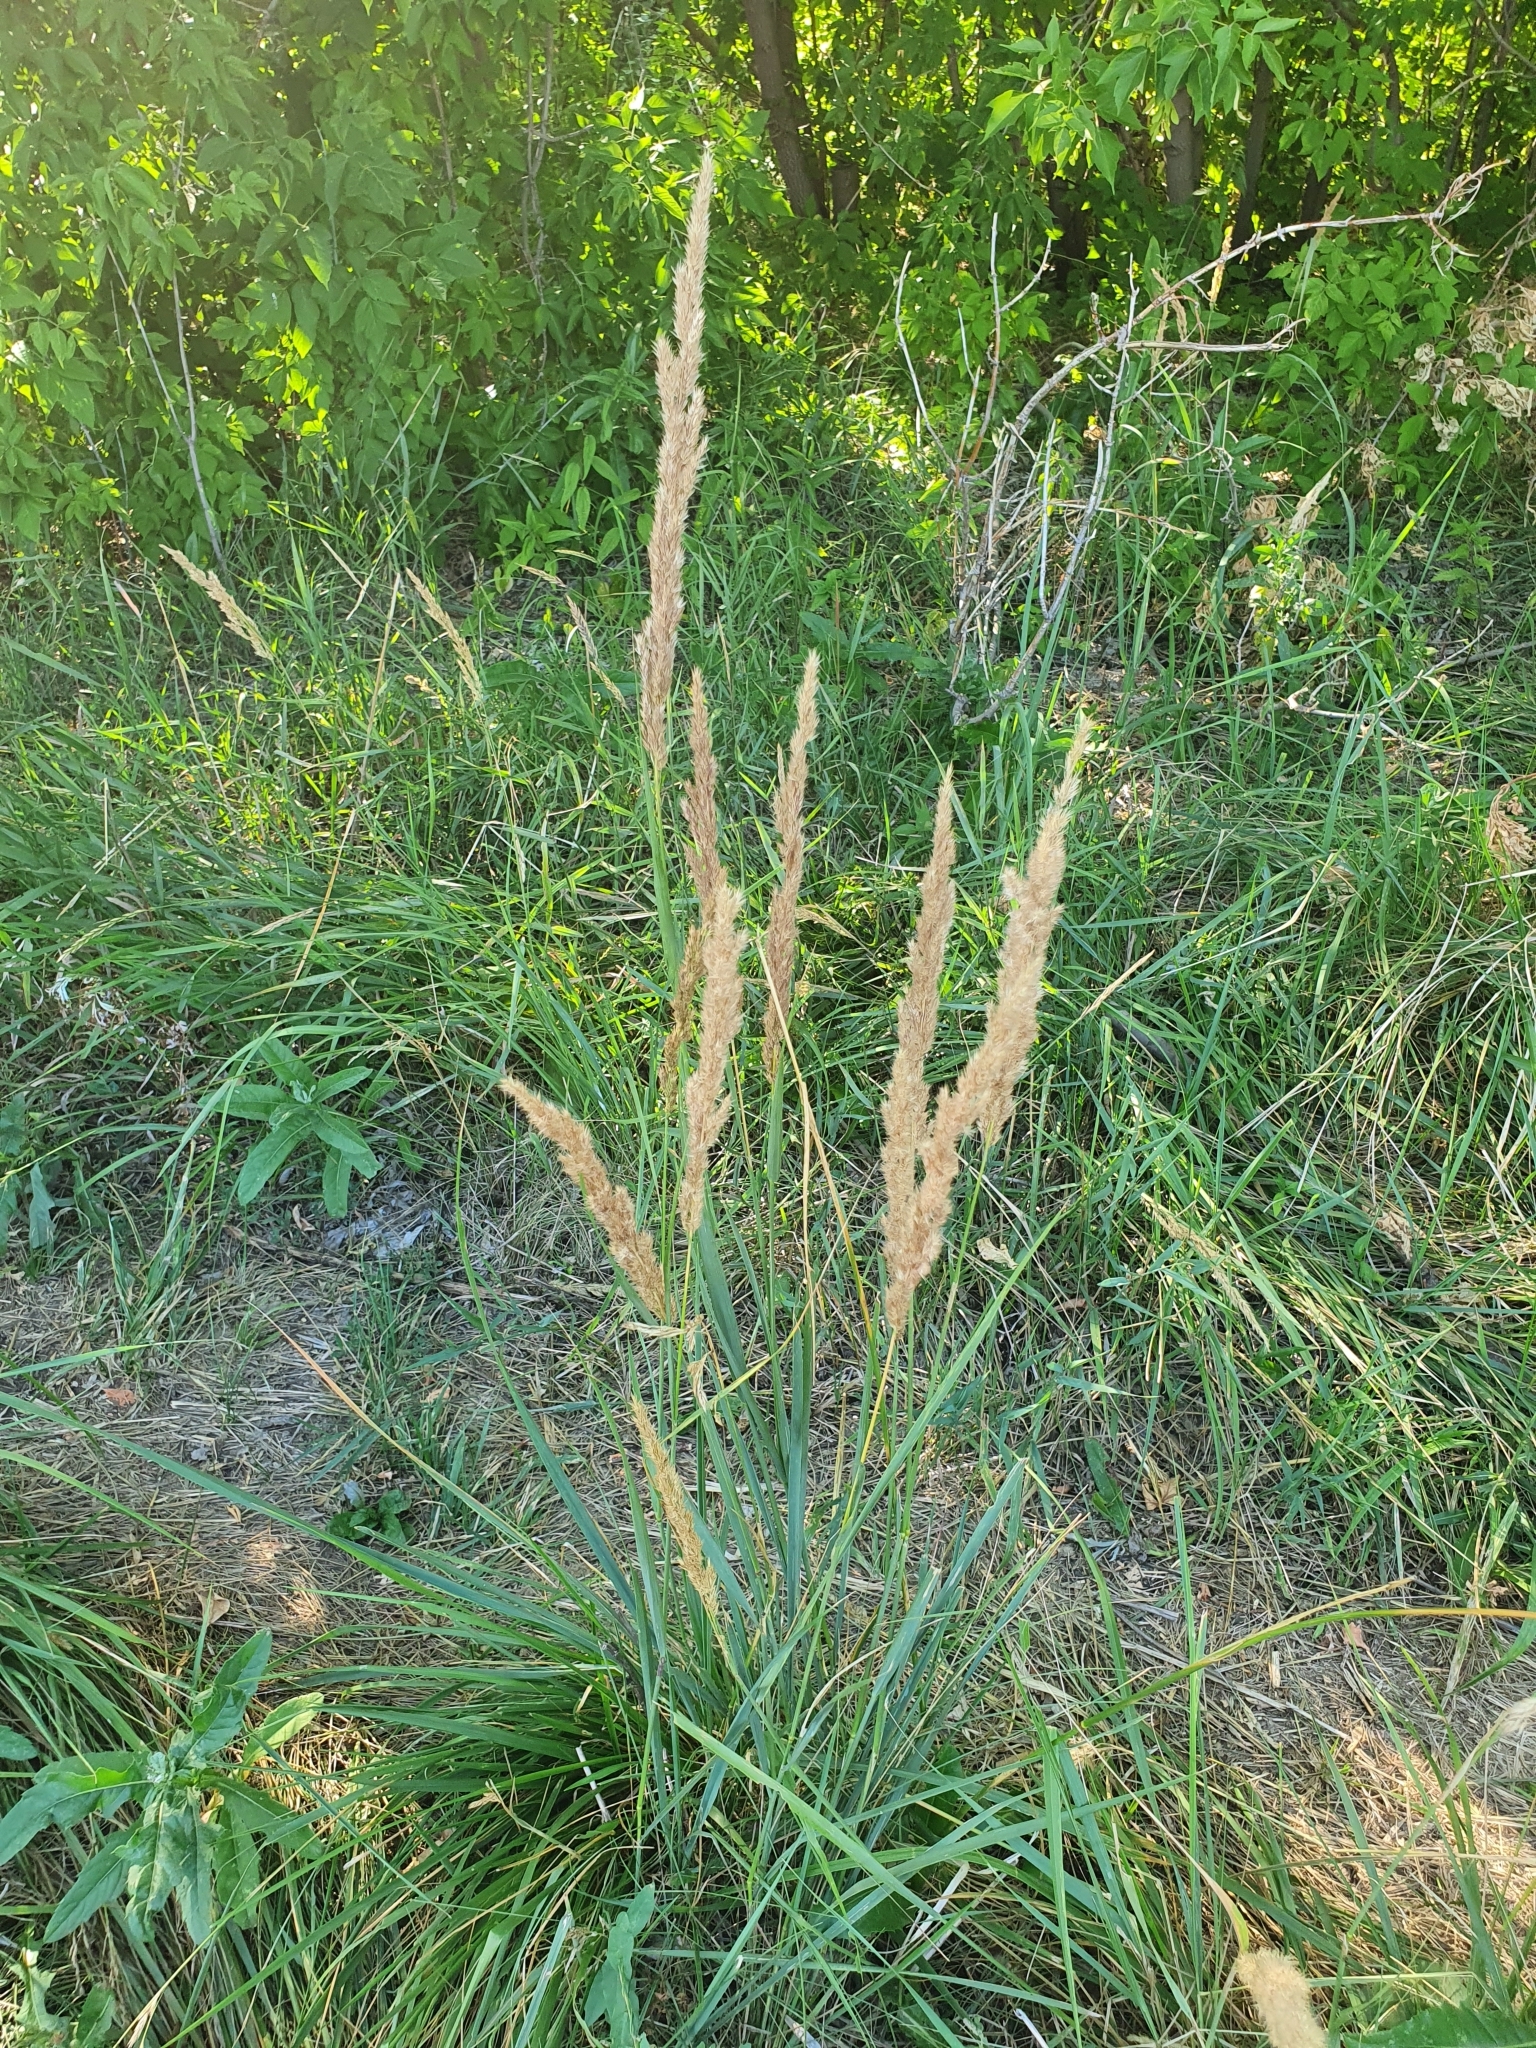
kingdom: Plantae
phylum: Tracheophyta
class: Liliopsida
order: Poales
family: Poaceae
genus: Calamagrostis
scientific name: Calamagrostis epigejos
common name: Wood small-reed
